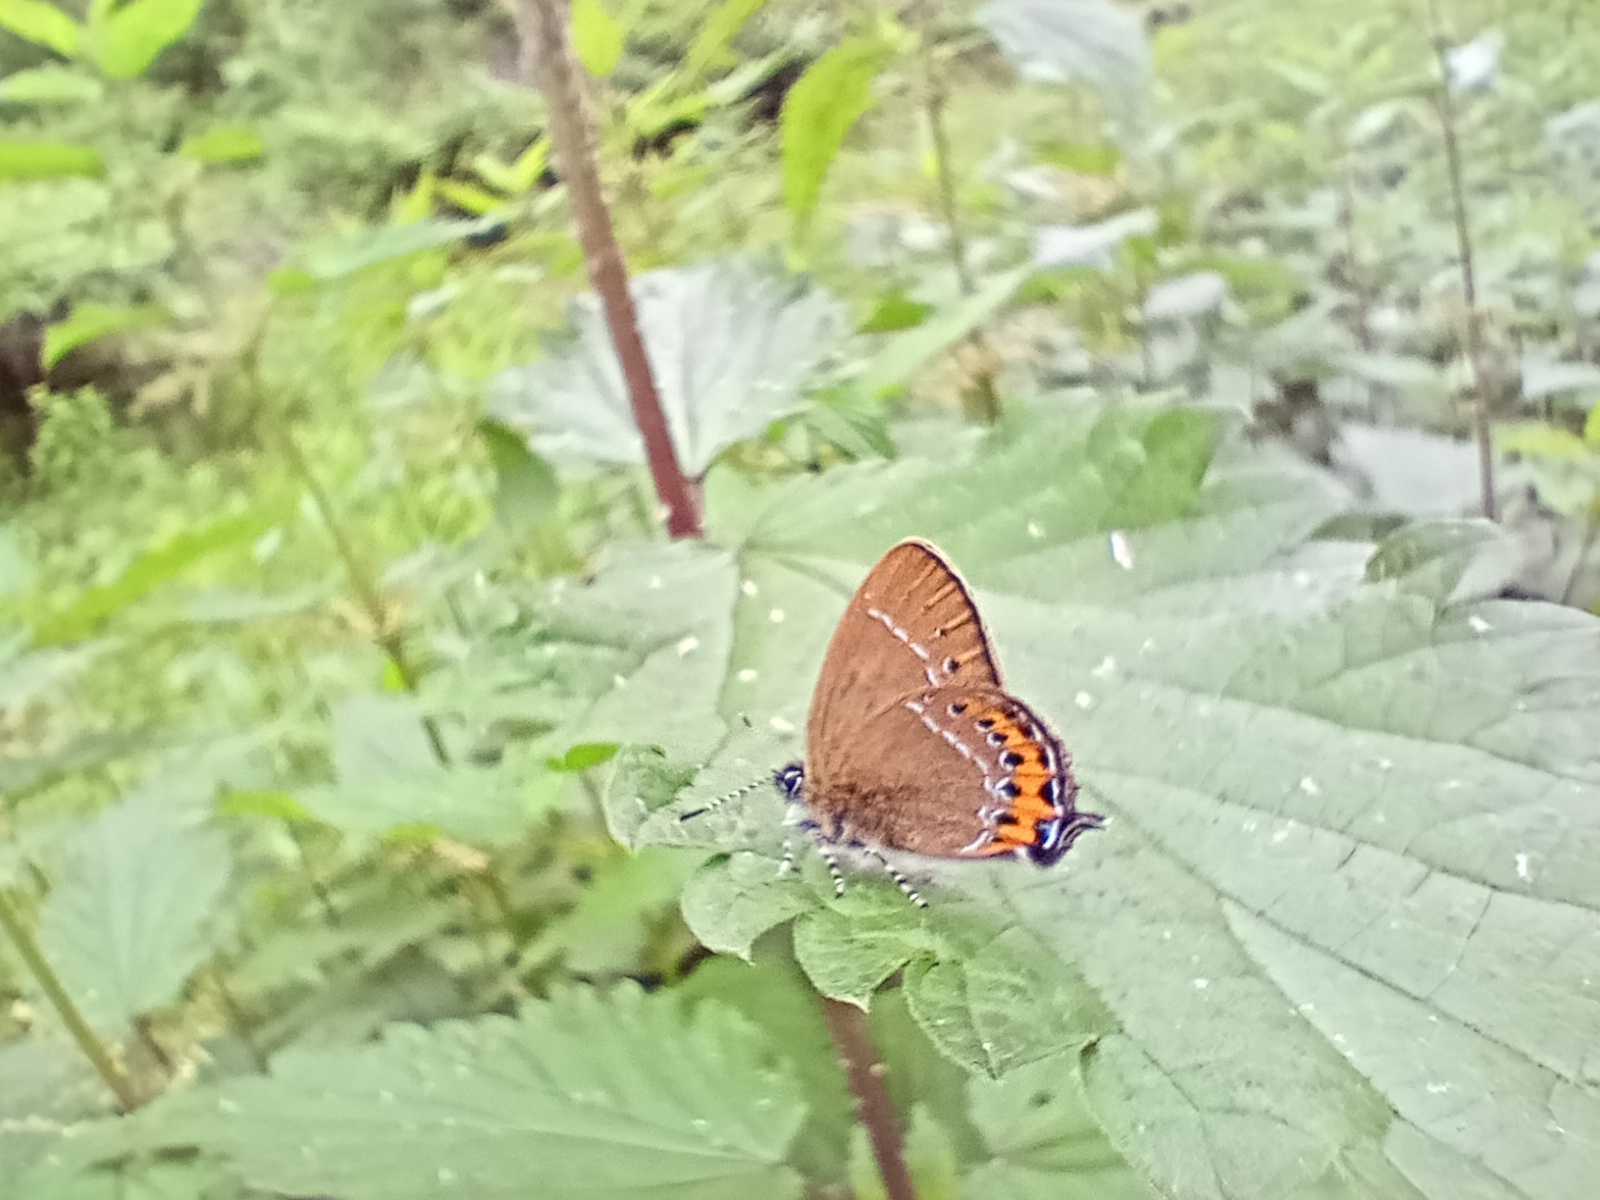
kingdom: Animalia
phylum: Arthropoda
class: Insecta
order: Lepidoptera
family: Lycaenidae
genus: Fixsenia
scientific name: Fixsenia pruni
